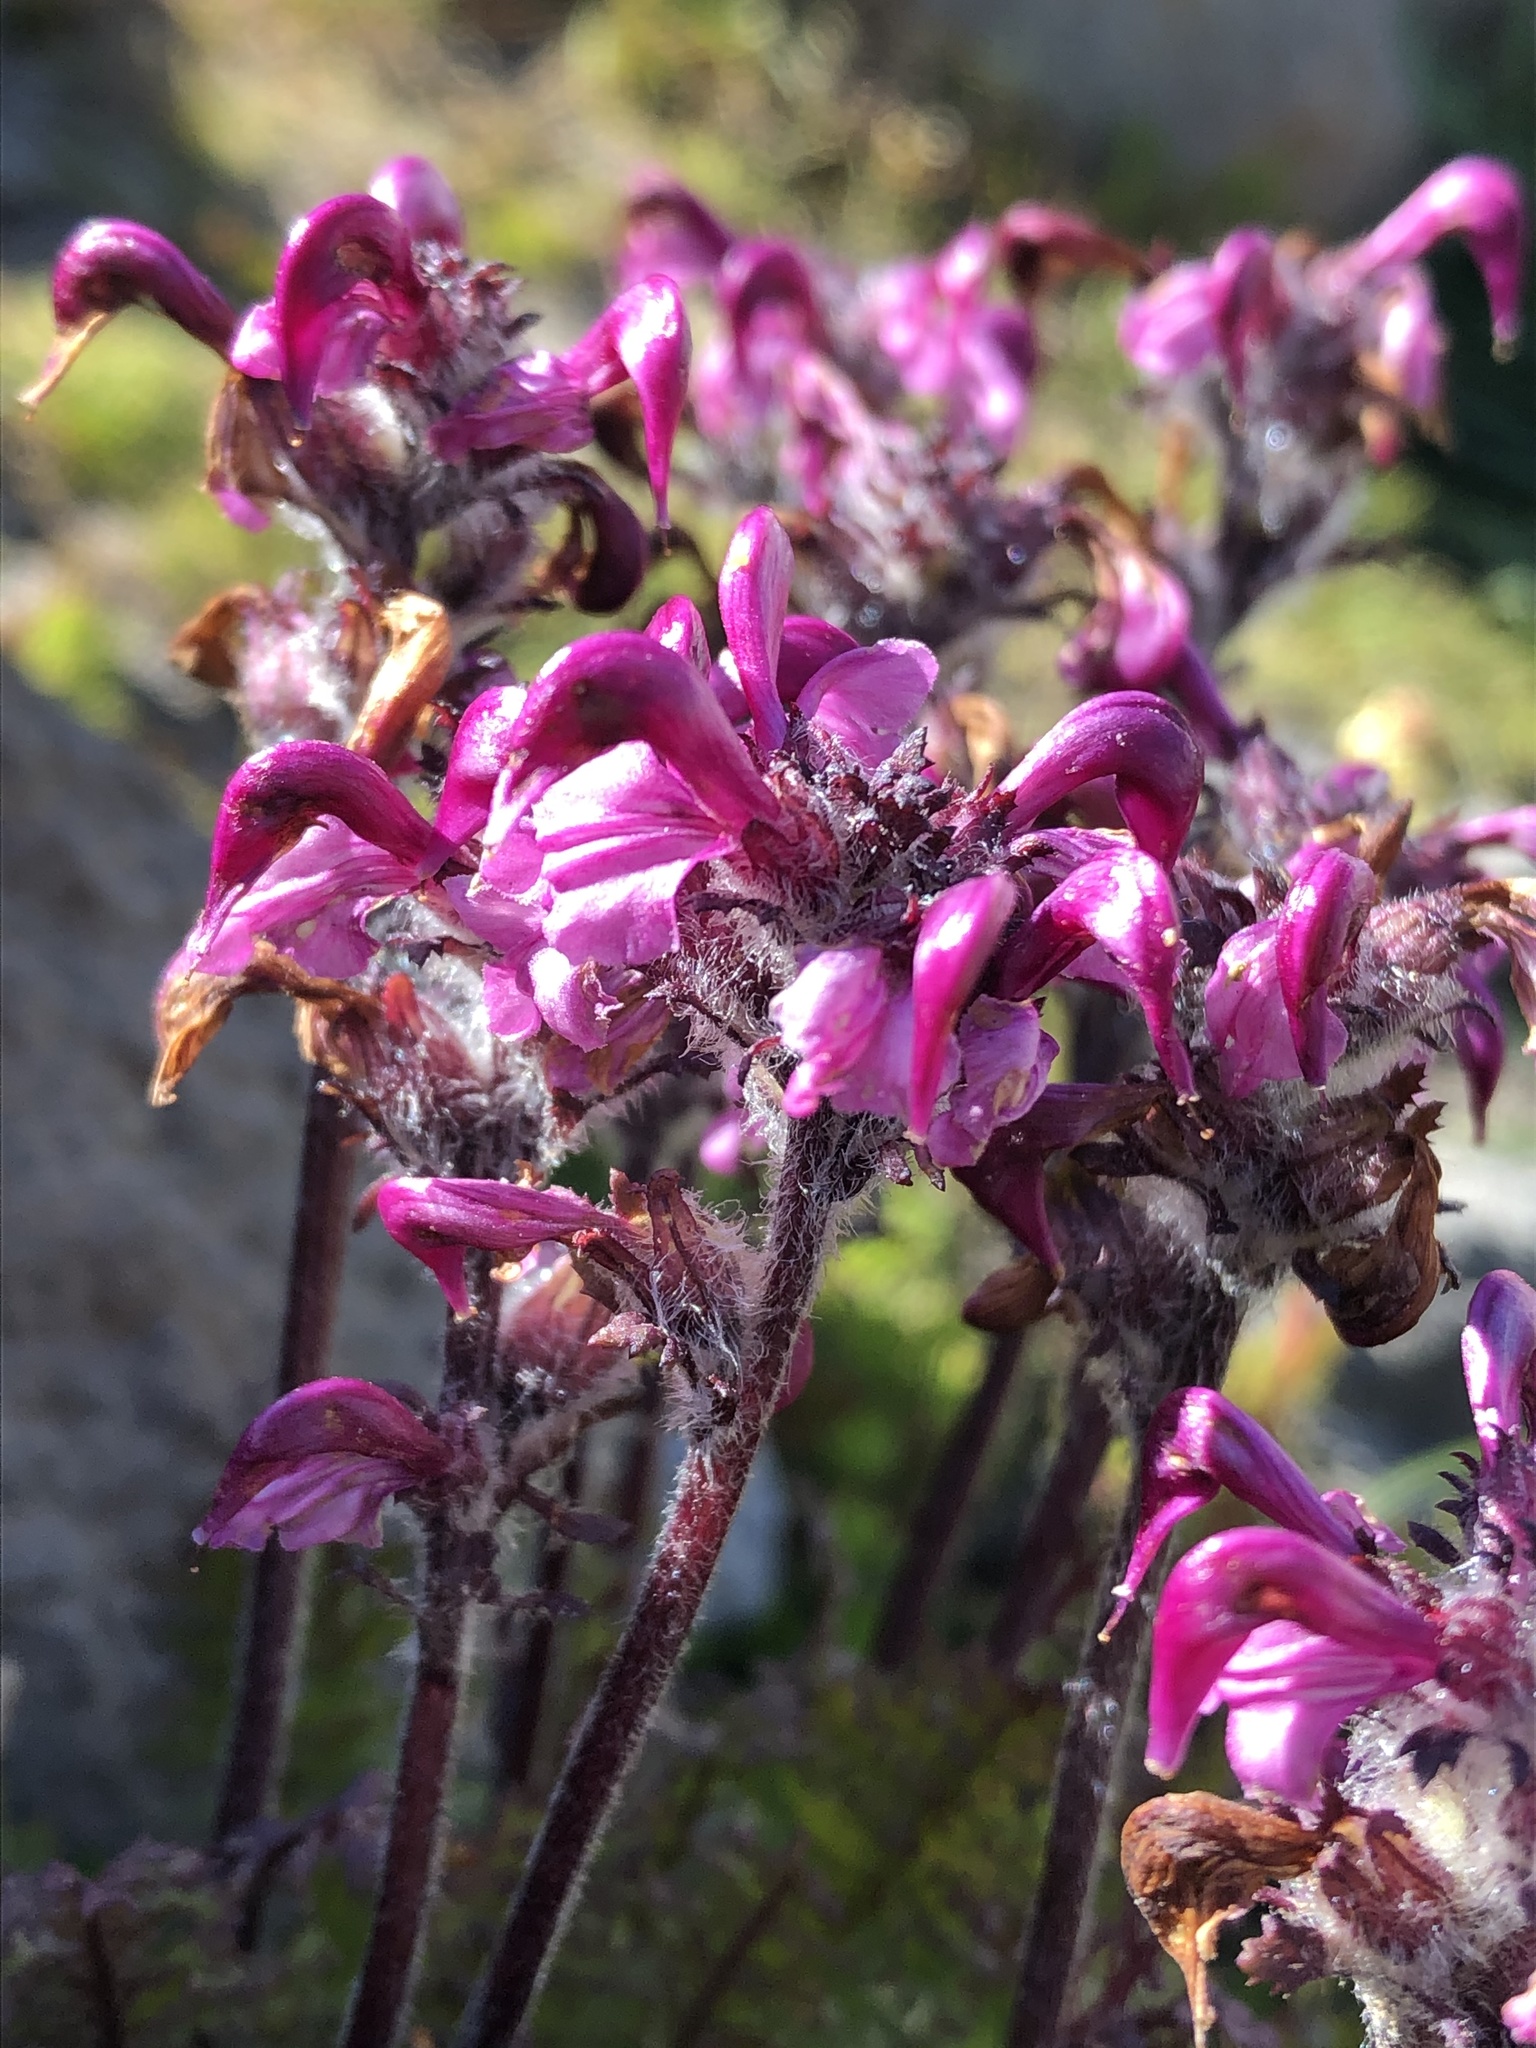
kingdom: Plantae
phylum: Tracheophyta
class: Magnoliopsida
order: Lamiales
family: Orobanchaceae
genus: Pedicularis
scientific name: Pedicularis ornithorhynchos
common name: Bird's-beak lousewort
